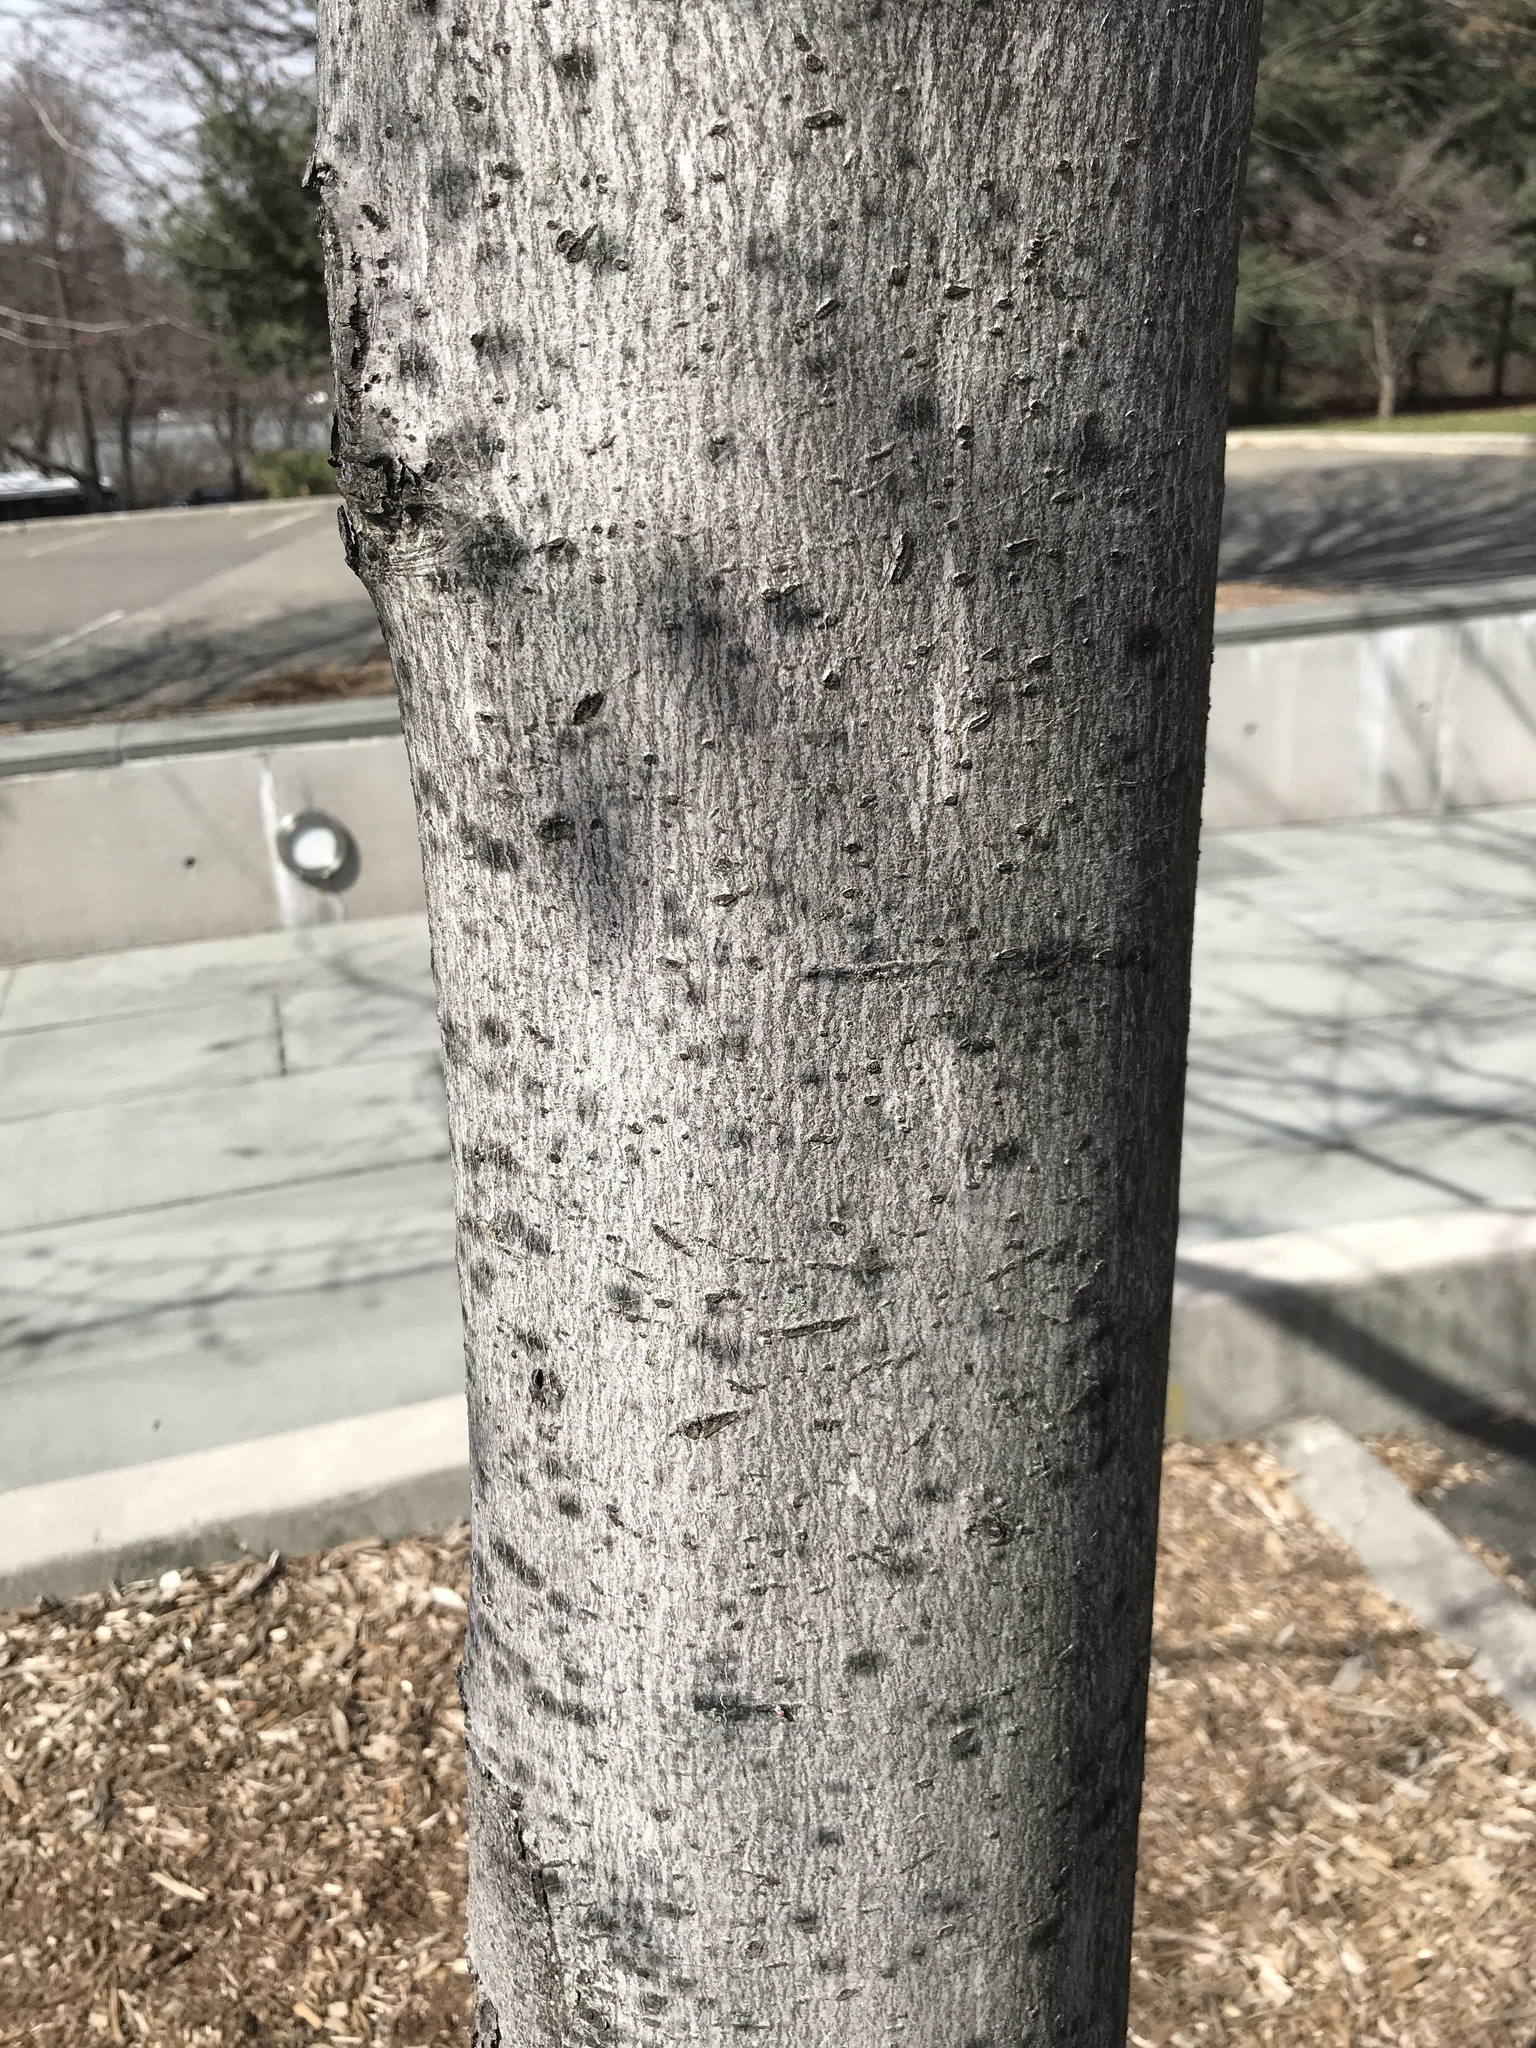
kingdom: Plantae
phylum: Tracheophyta
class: Magnoliopsida
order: Sapindales
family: Sapindaceae
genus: Acer
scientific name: Acer rubrum
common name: Red maple
